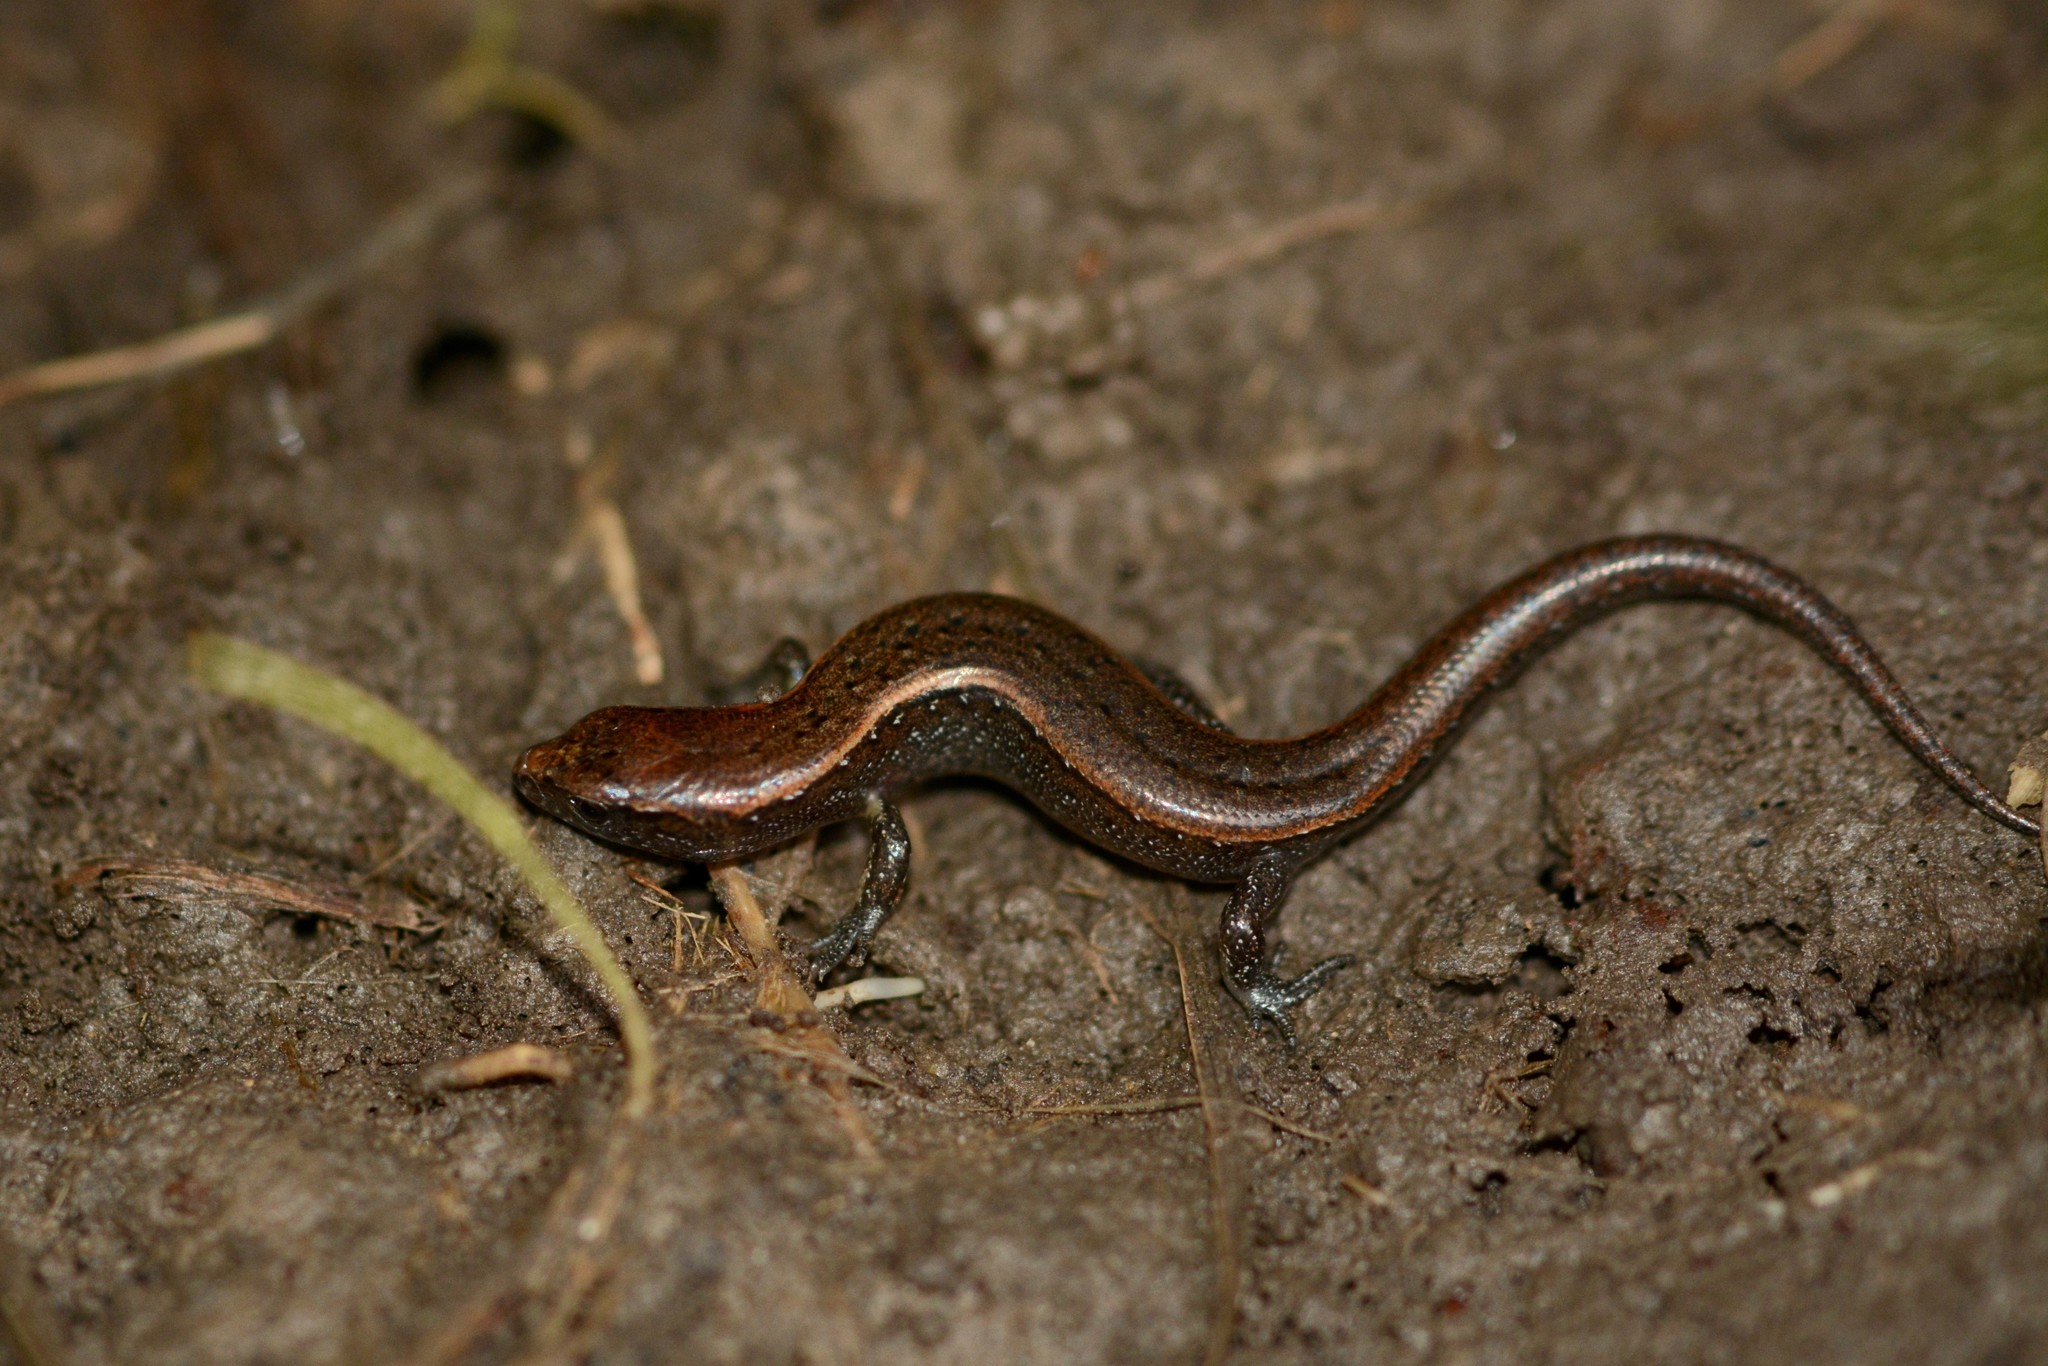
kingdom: Animalia
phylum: Chordata
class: Squamata
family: Scincidae
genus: Oligosoma
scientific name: Oligosoma aeneum
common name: Copper skink
